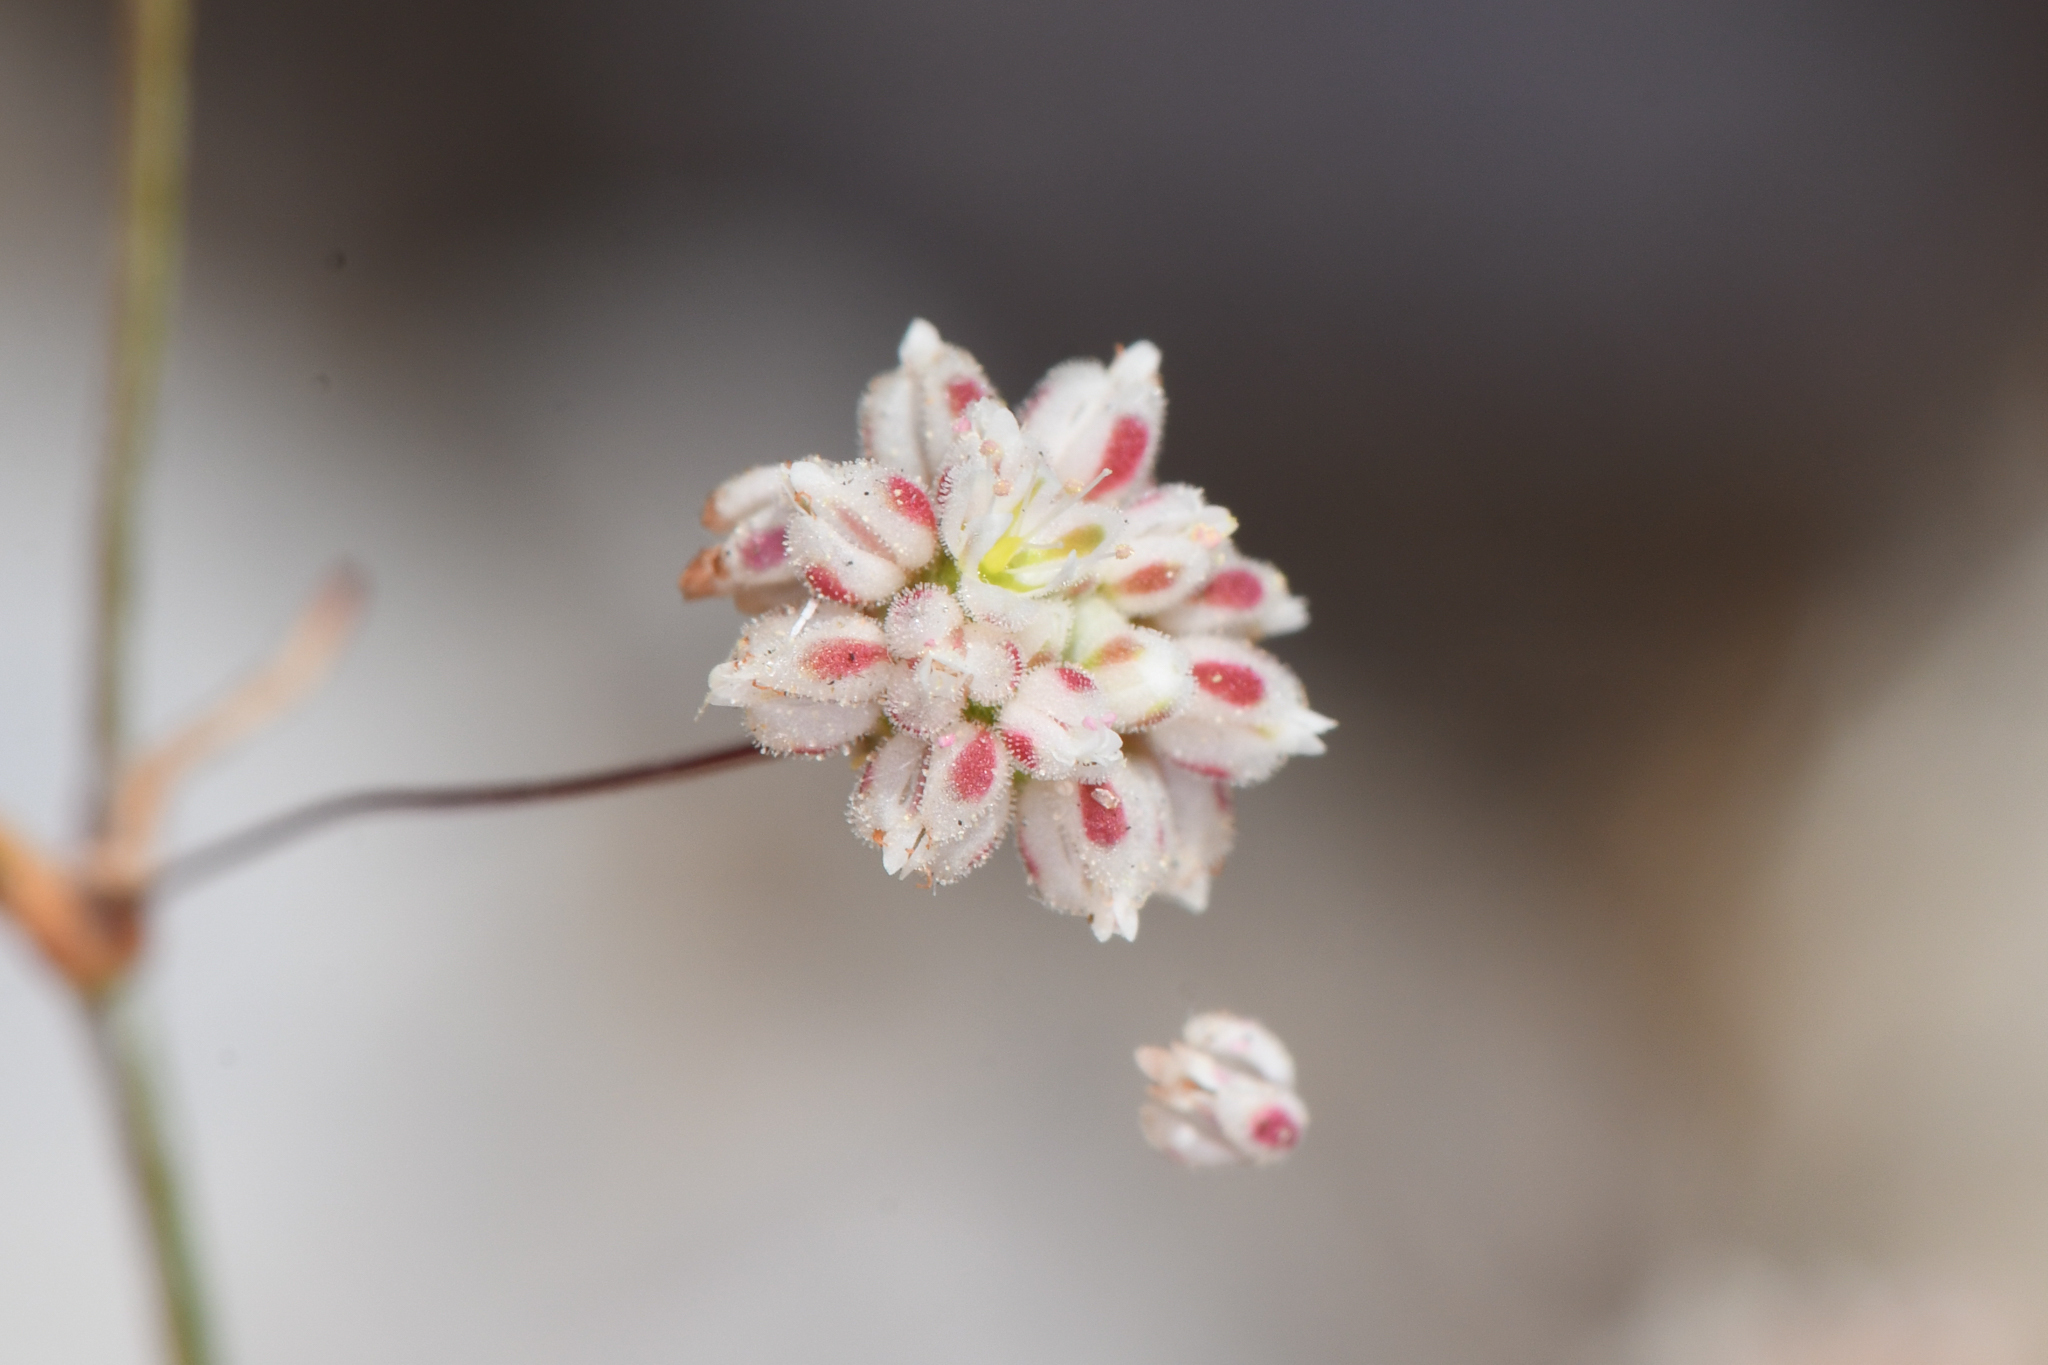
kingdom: Plantae
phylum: Tracheophyta
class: Magnoliopsida
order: Caryophyllales
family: Polygonaceae
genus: Eriogonum
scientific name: Eriogonum maculatum
